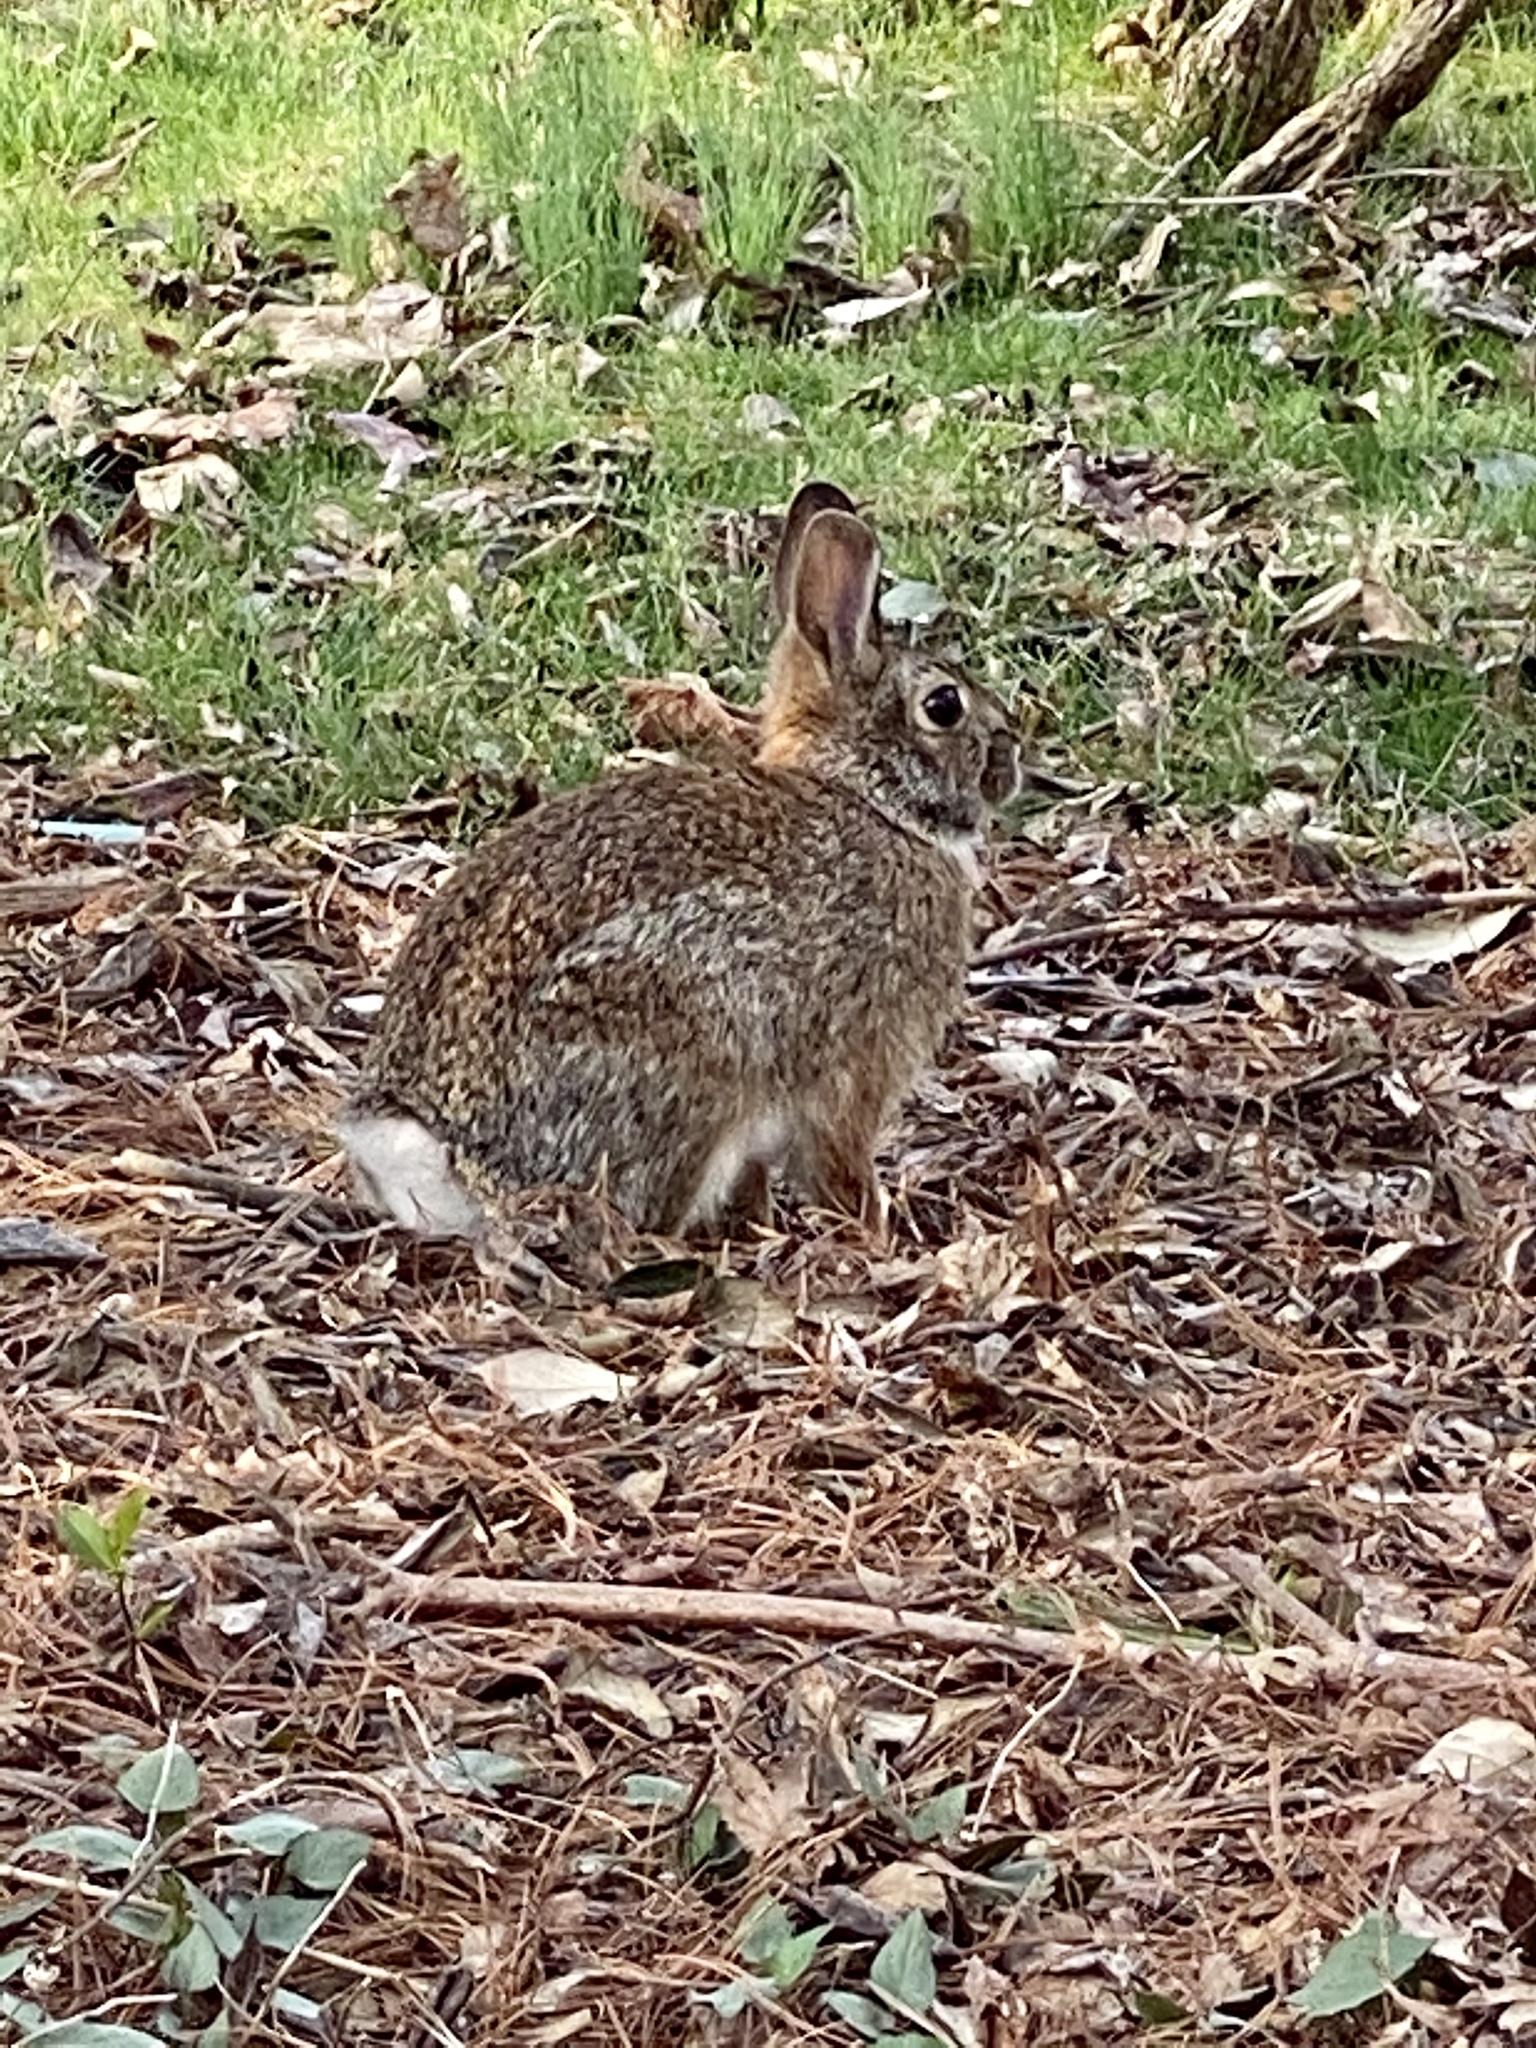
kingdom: Animalia
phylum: Chordata
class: Mammalia
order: Lagomorpha
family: Leporidae
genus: Sylvilagus
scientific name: Sylvilagus floridanus
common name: Eastern cottontail
